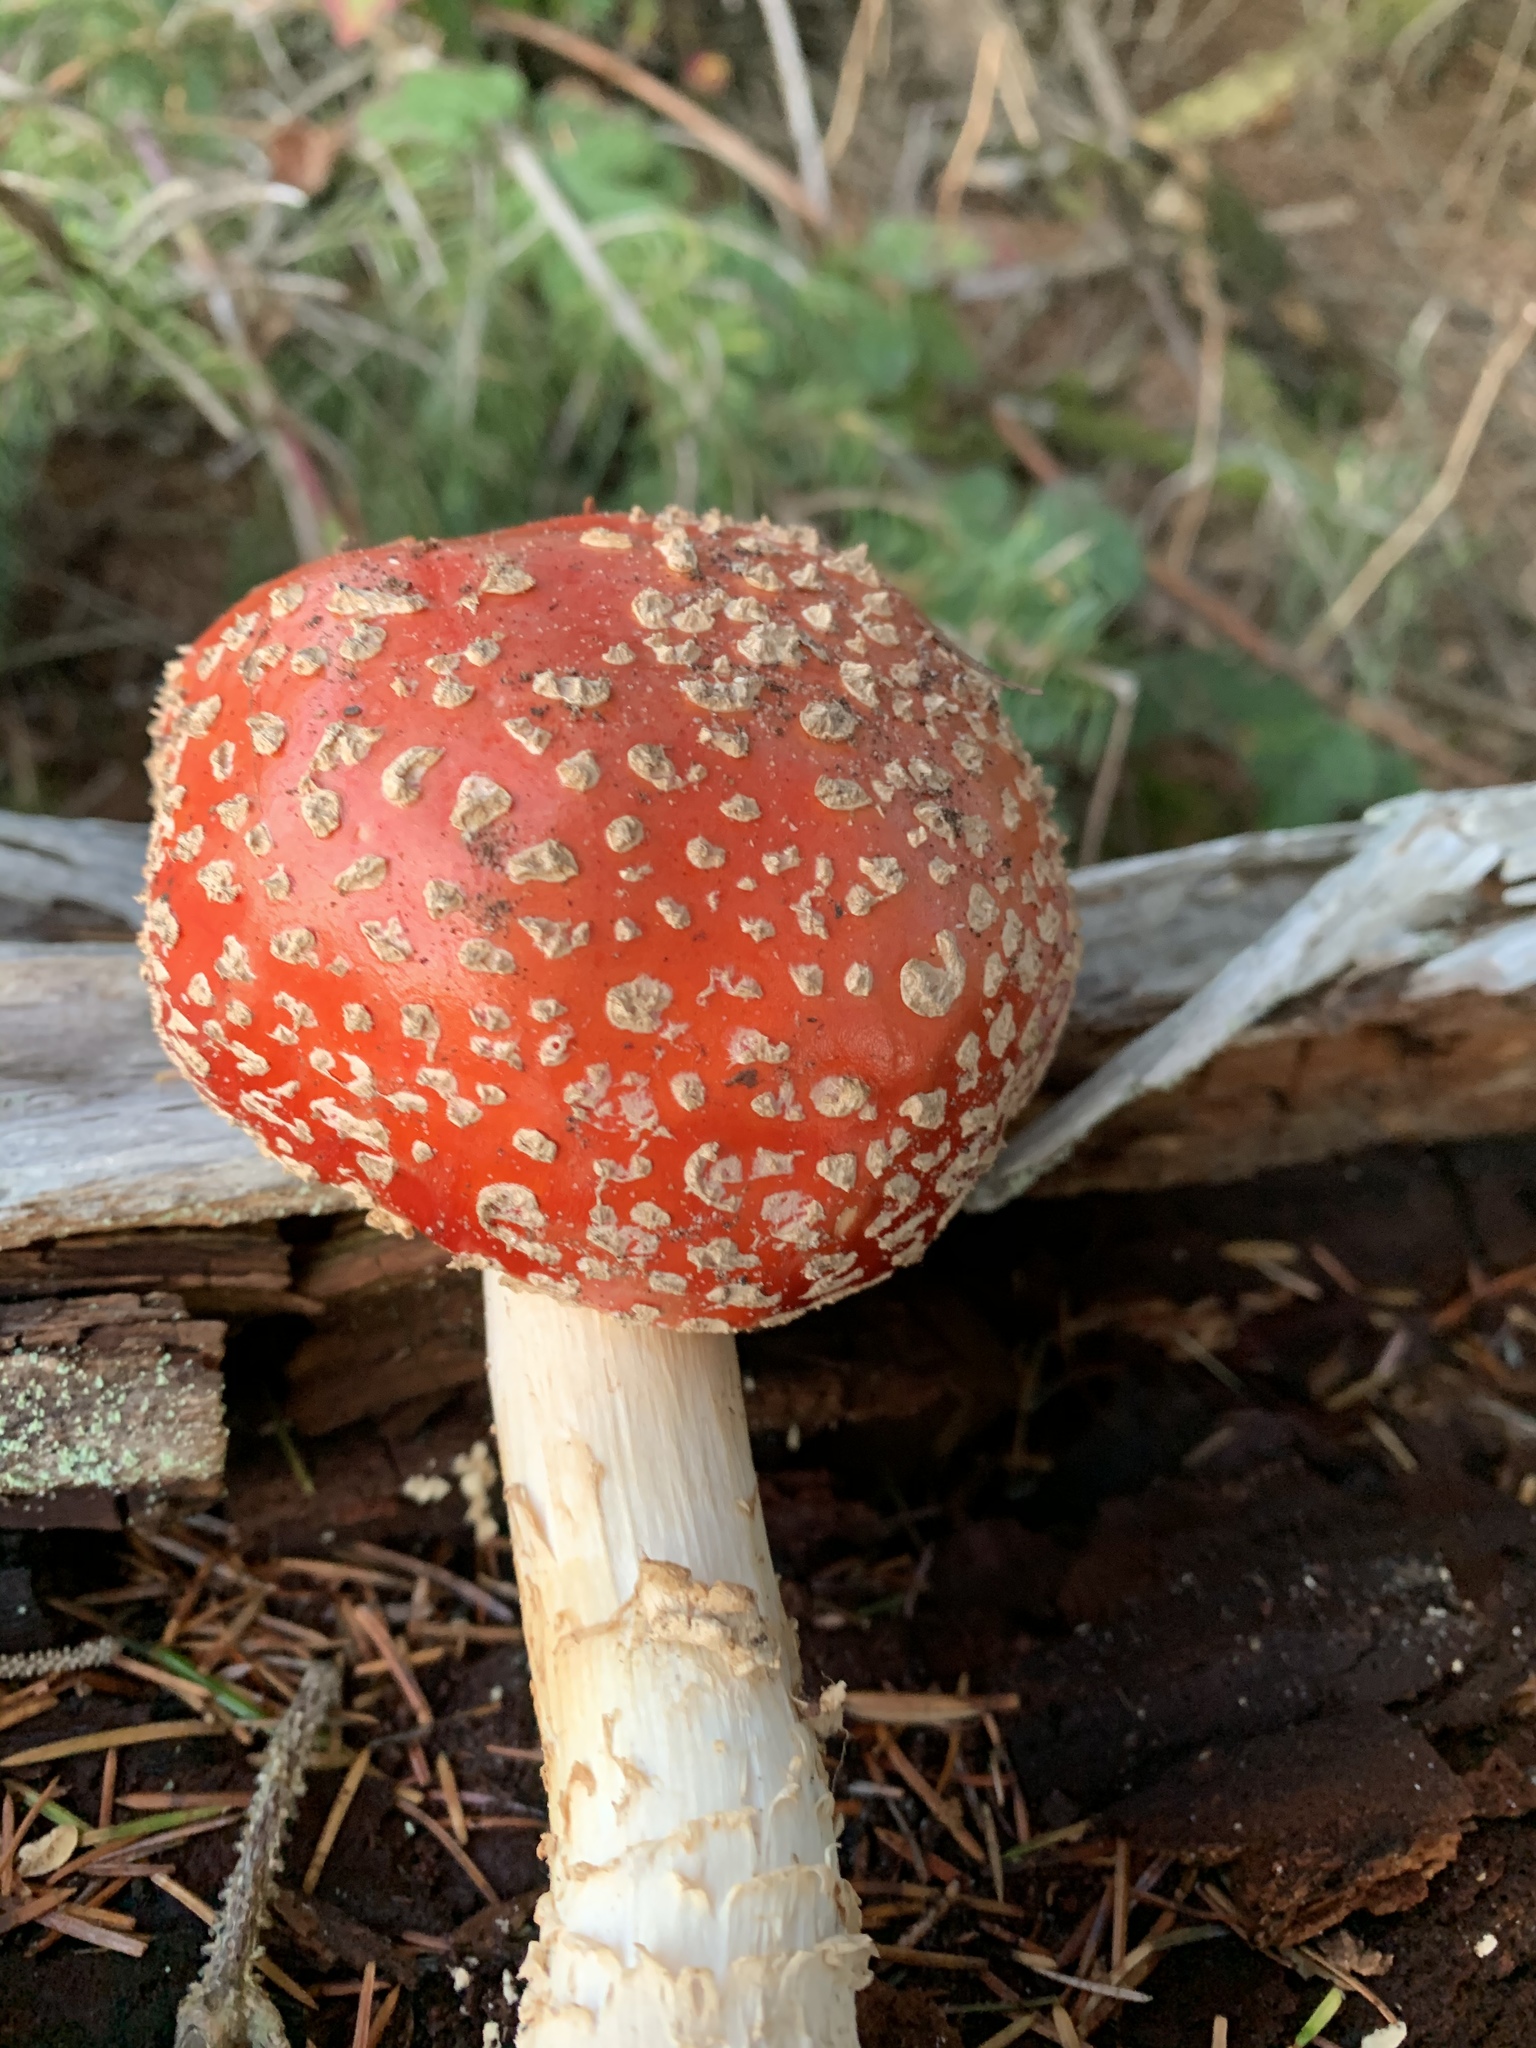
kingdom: Fungi
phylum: Basidiomycota
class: Agaricomycetes
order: Agaricales
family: Amanitaceae
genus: Amanita
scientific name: Amanita muscaria
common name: Fly agaric
